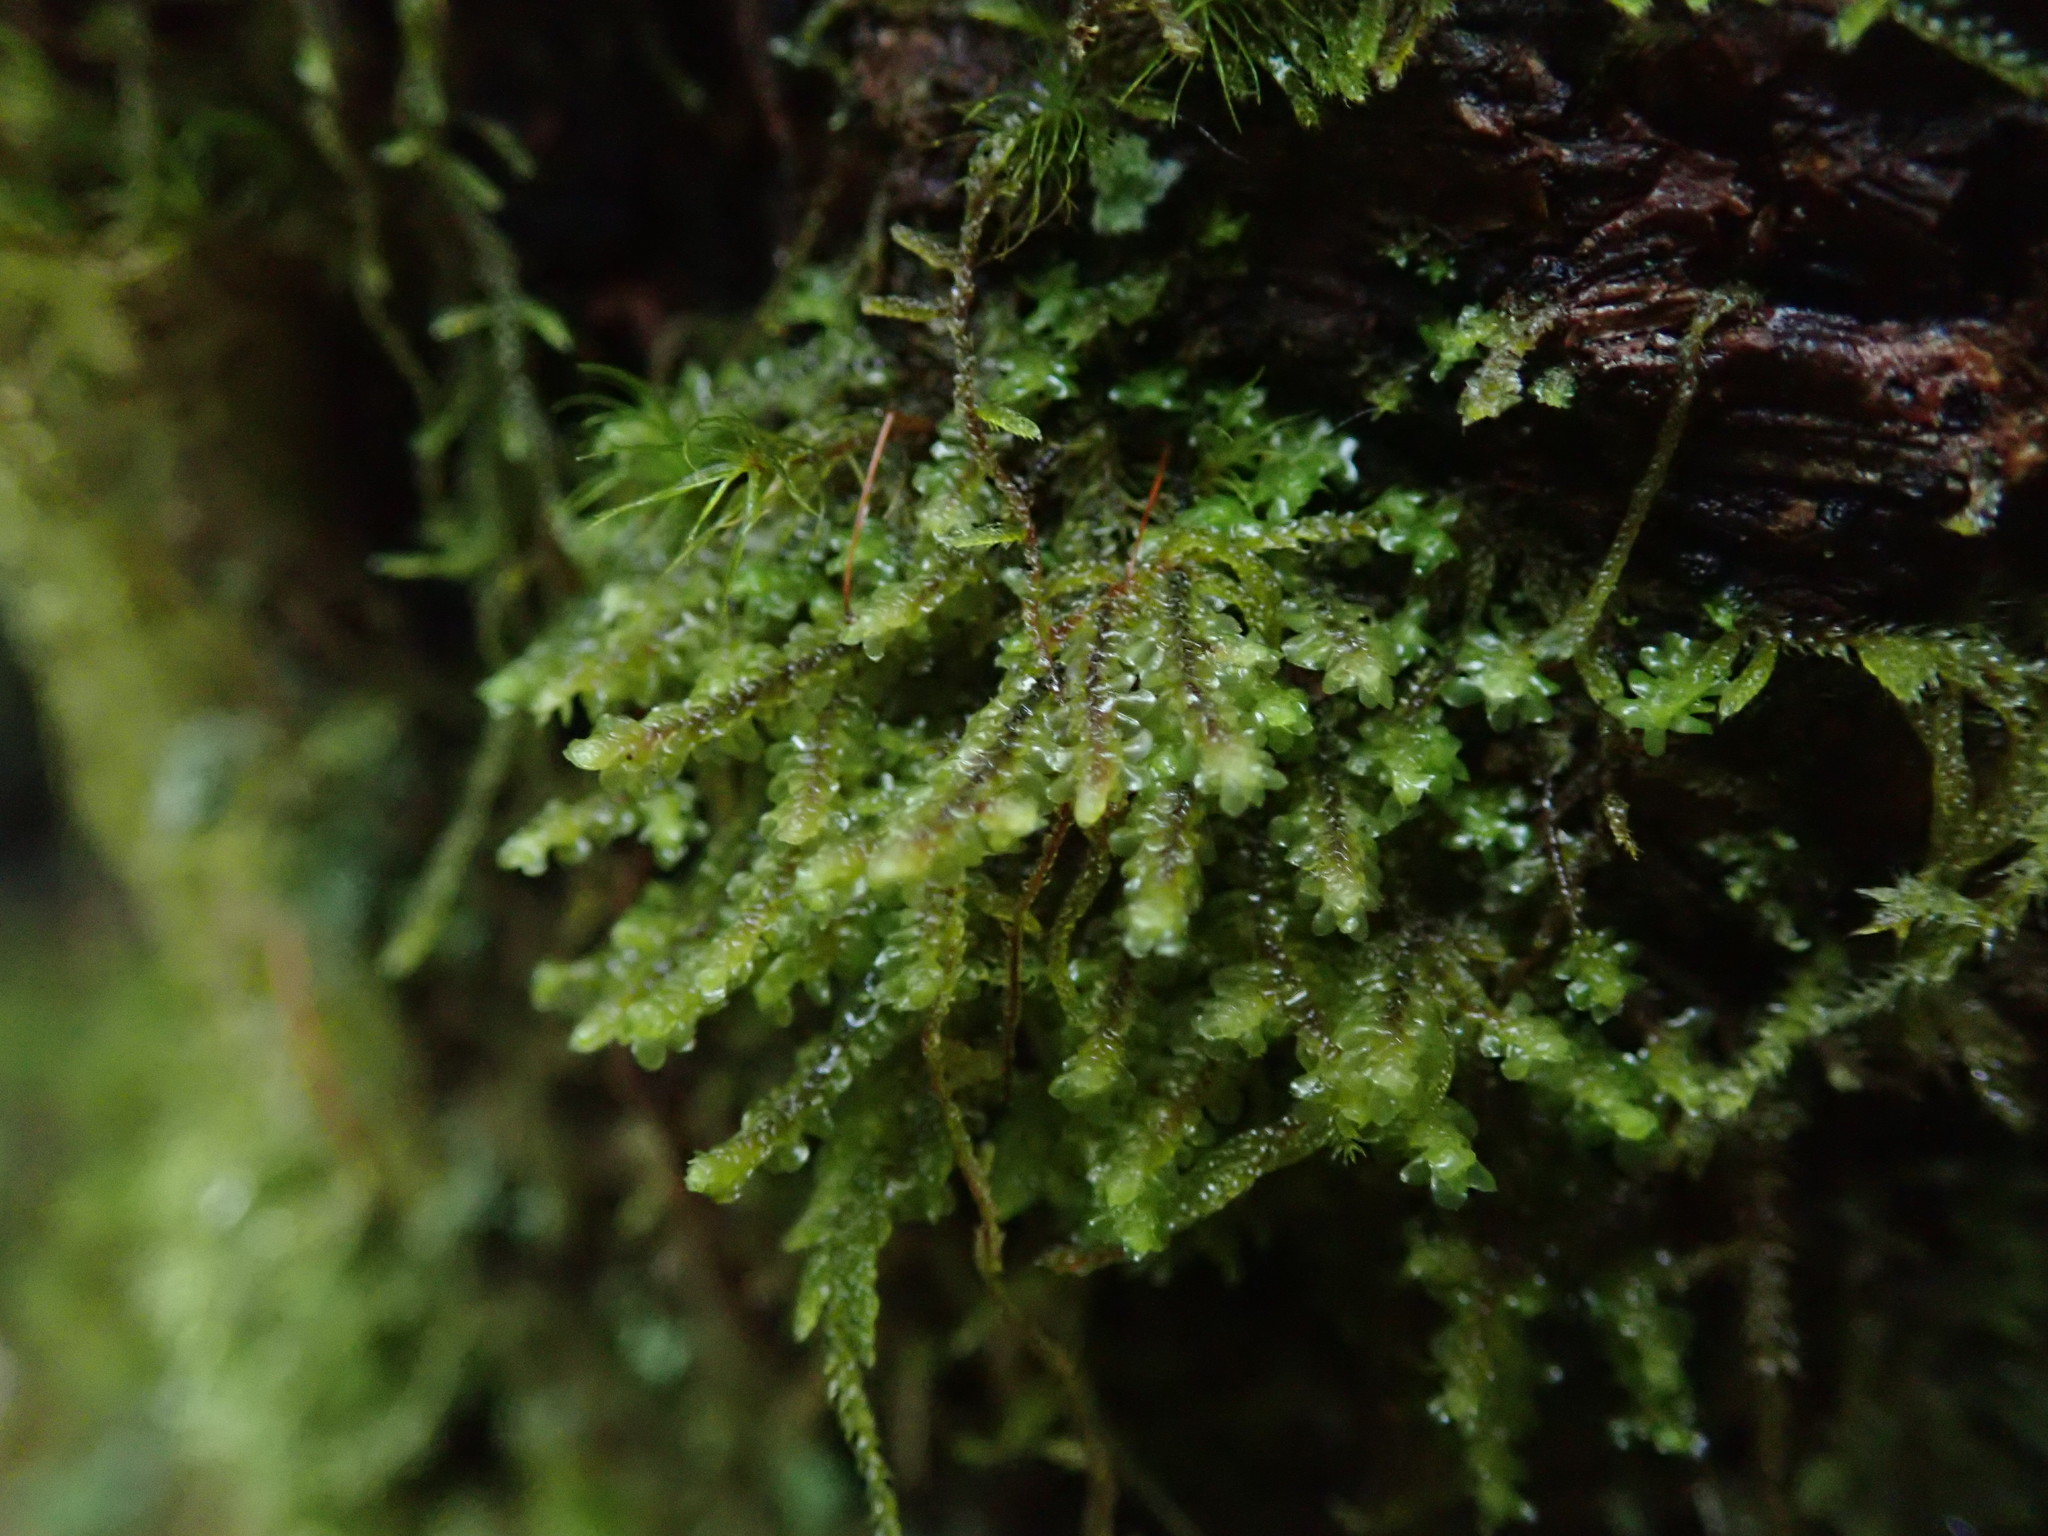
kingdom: Plantae
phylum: Marchantiophyta
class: Jungermanniopsida
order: Jungermanniales
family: Scapaniaceae
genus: Scapania
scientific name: Scapania bolanderi
